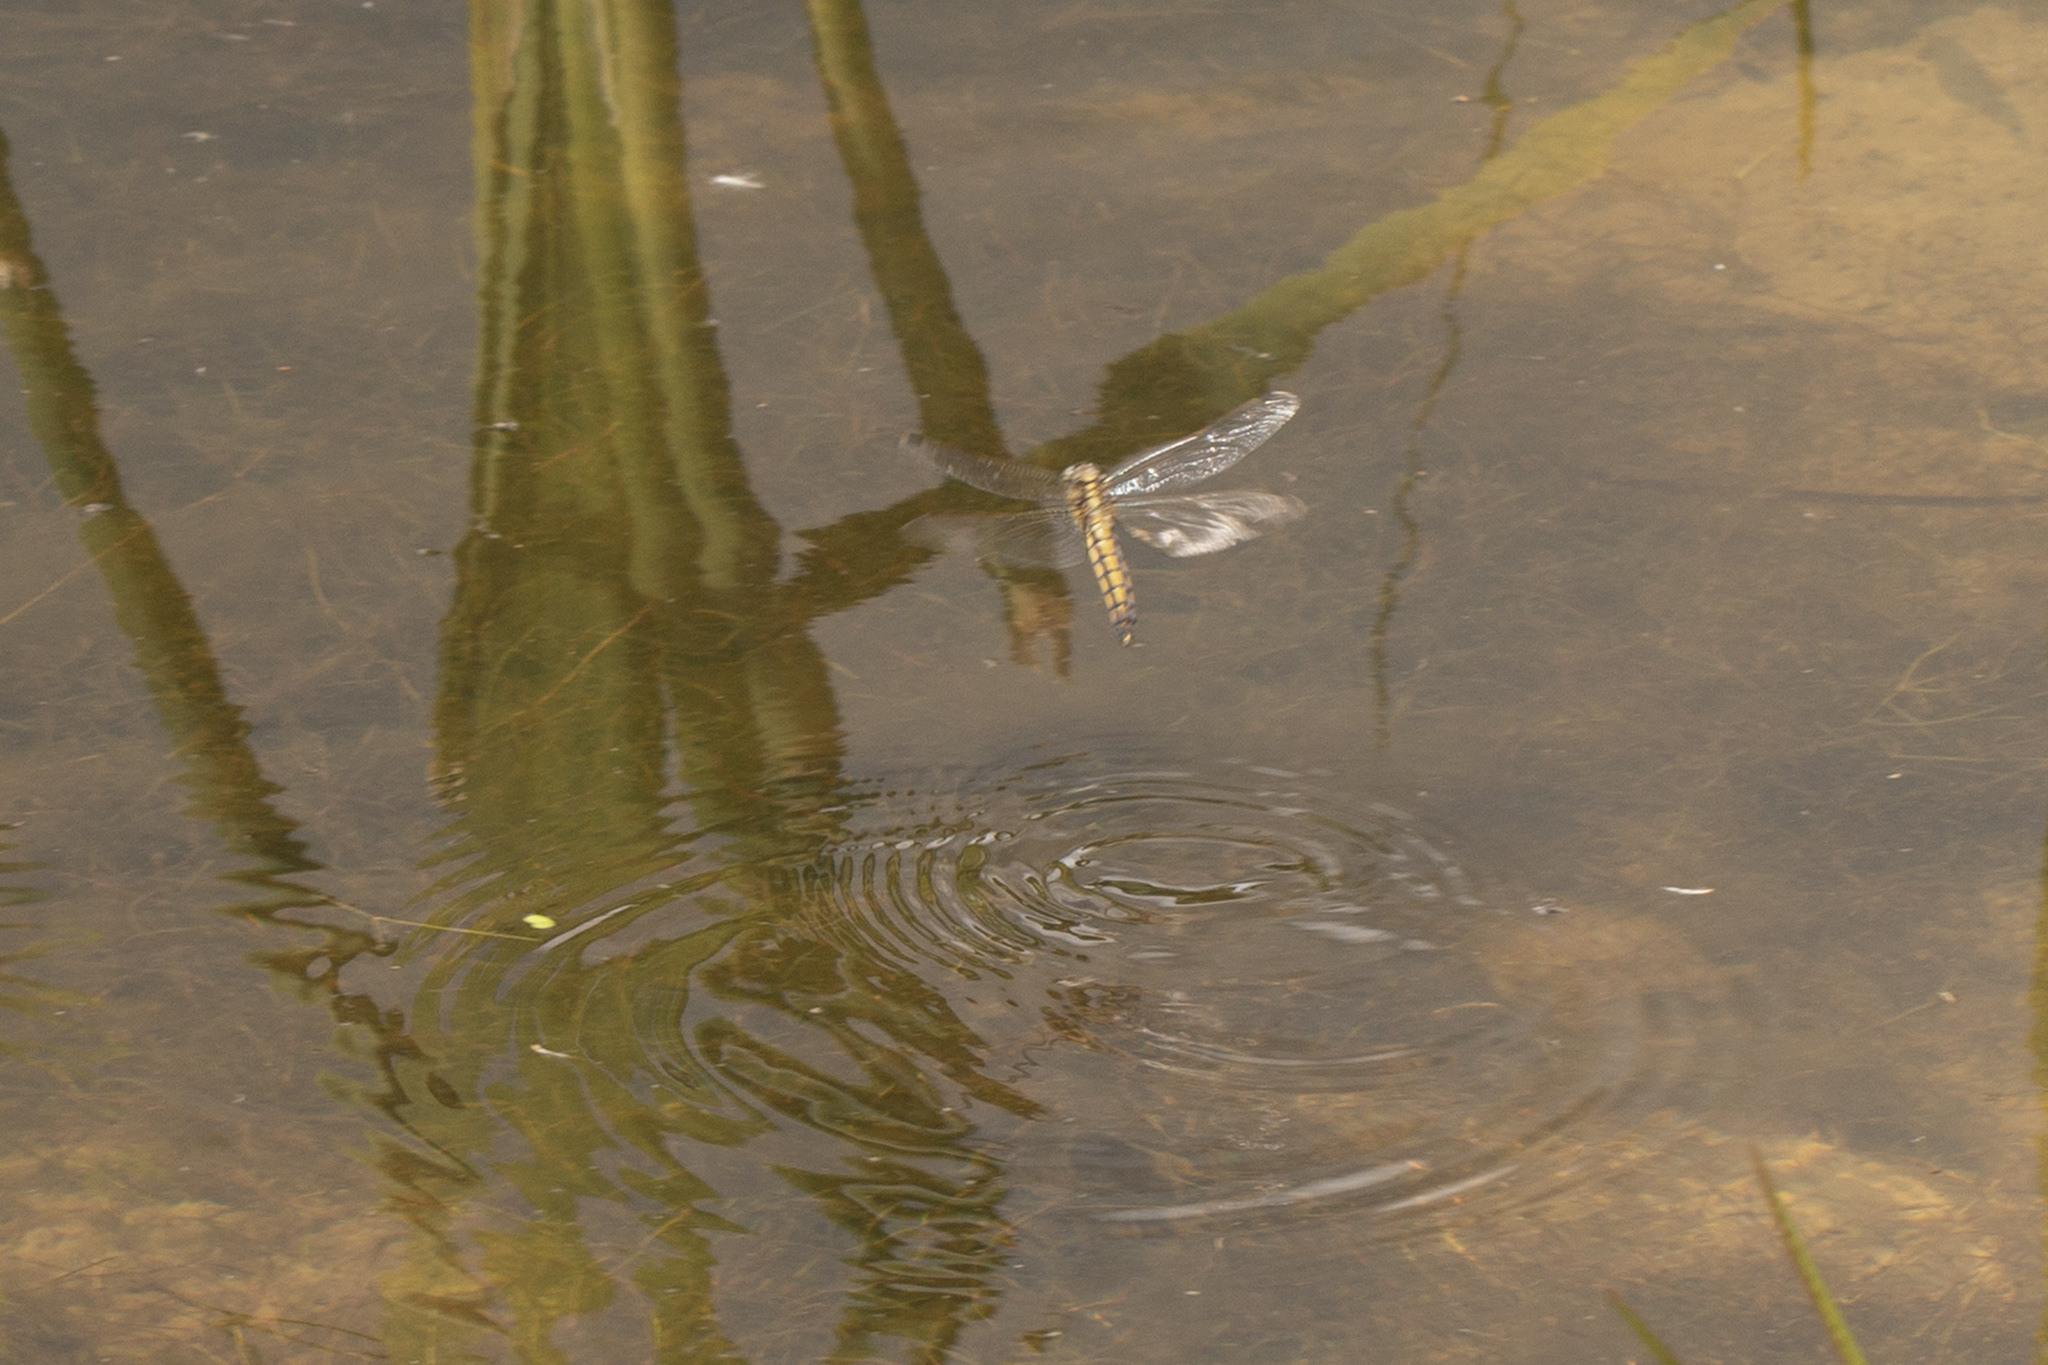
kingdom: Animalia
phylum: Arthropoda
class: Insecta
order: Odonata
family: Libellulidae
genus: Orthetrum
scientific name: Orthetrum cancellatum
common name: Black-tailed skimmer
